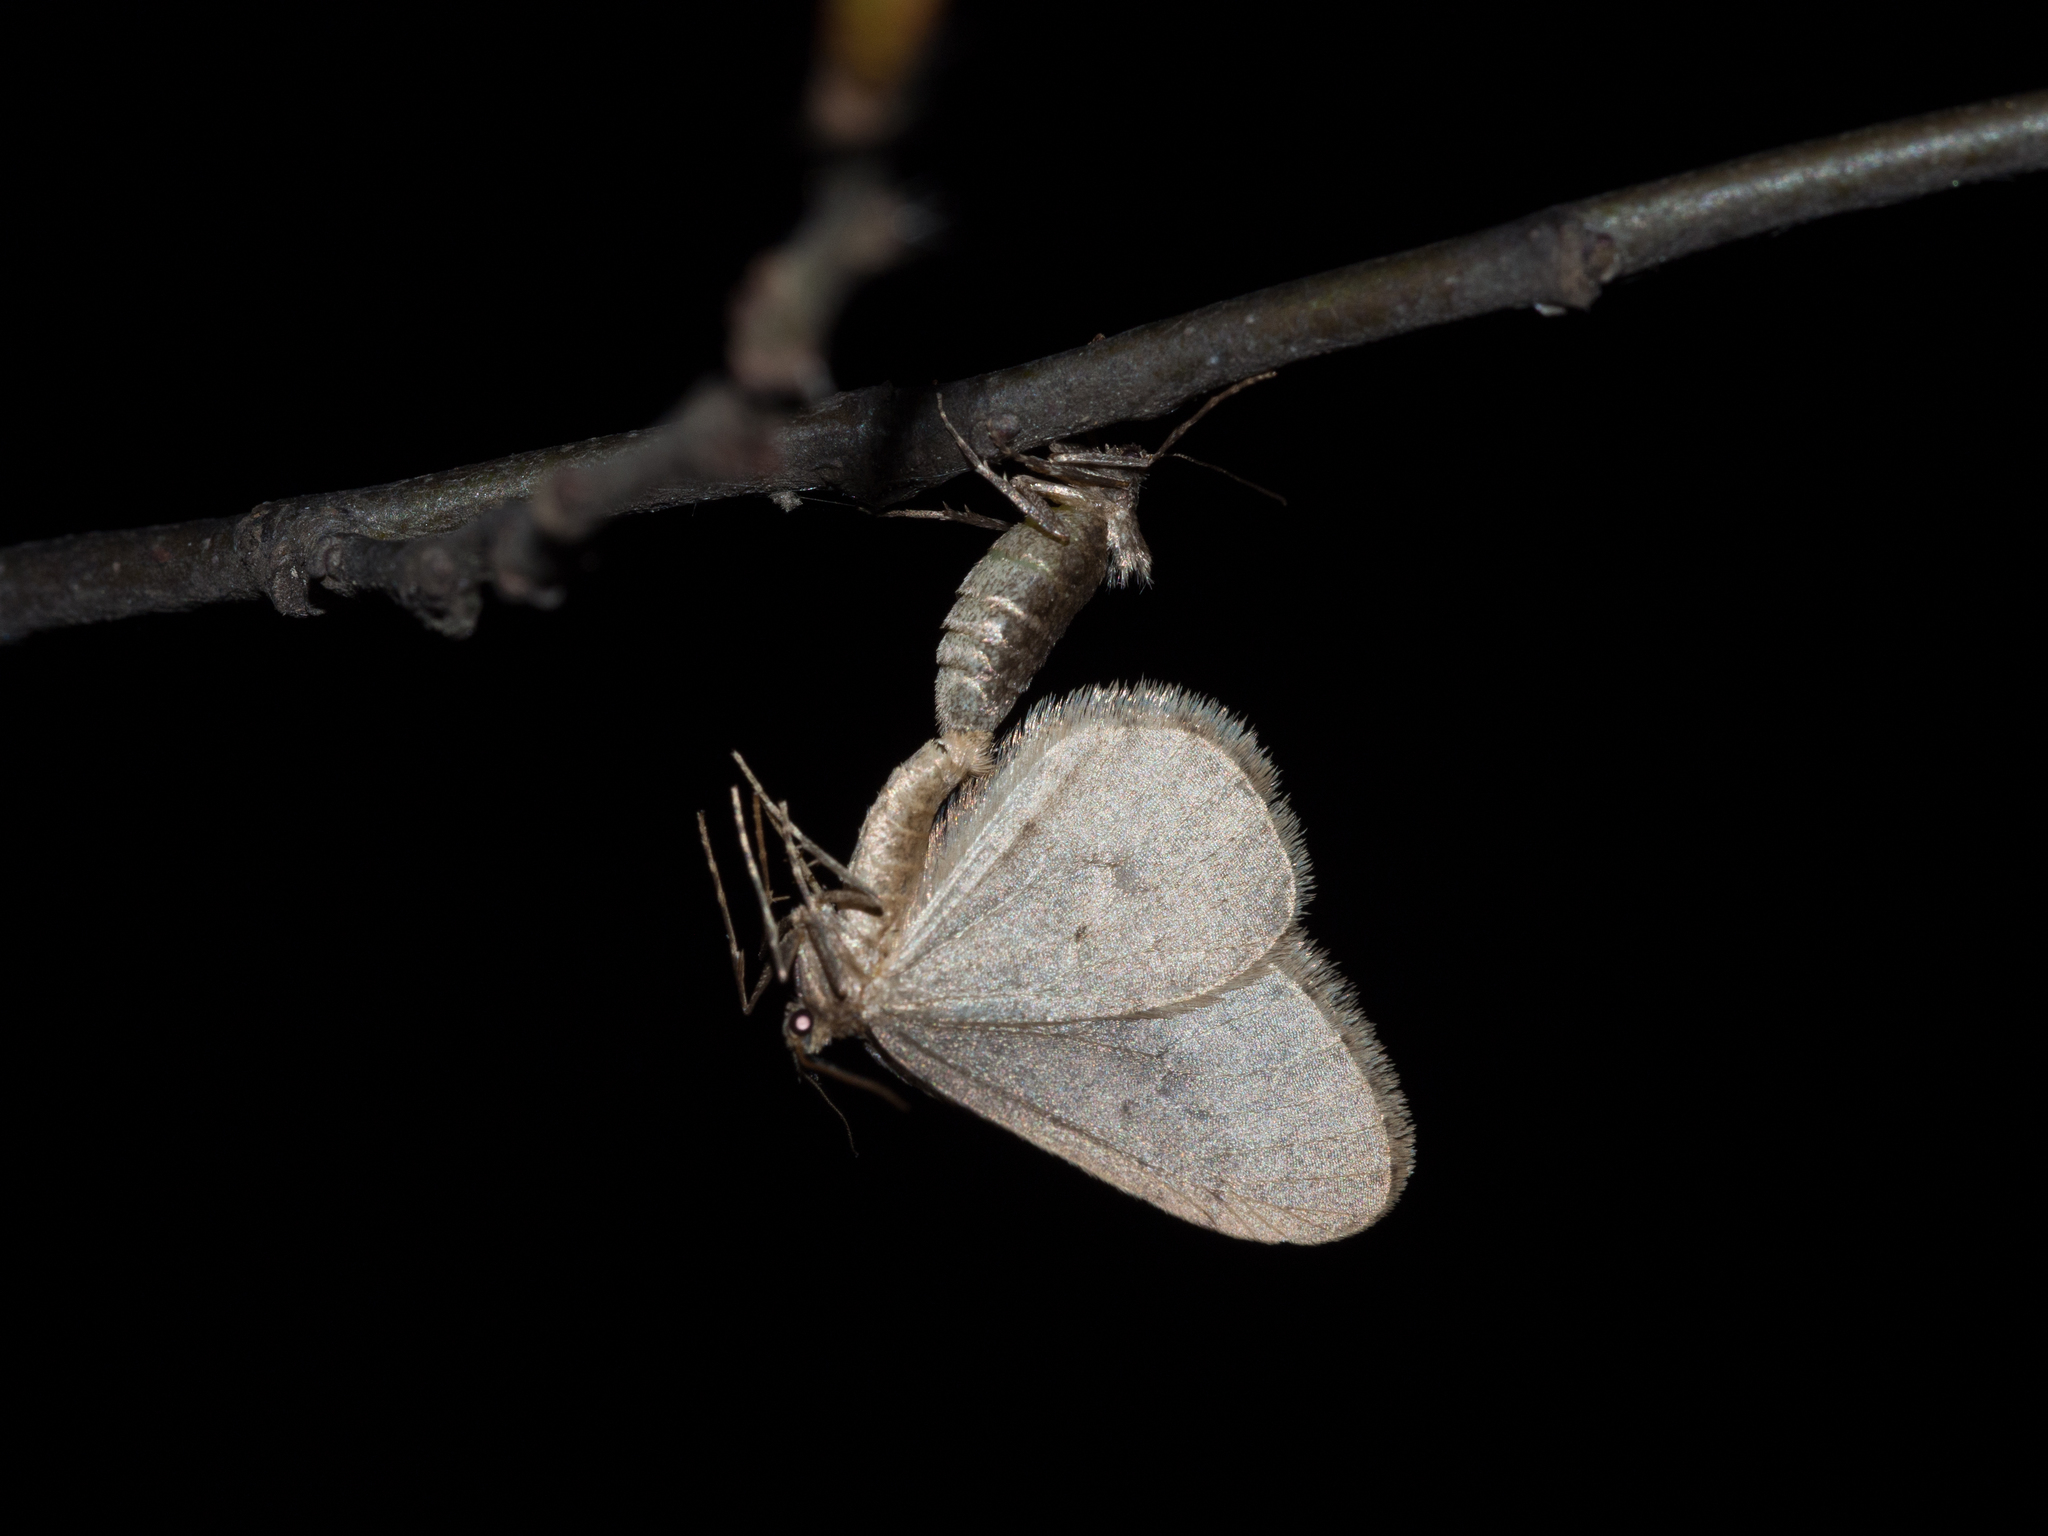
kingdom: Animalia
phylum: Arthropoda
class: Insecta
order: Lepidoptera
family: Geometridae
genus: Operophtera
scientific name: Operophtera brumata
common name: Winter moth
